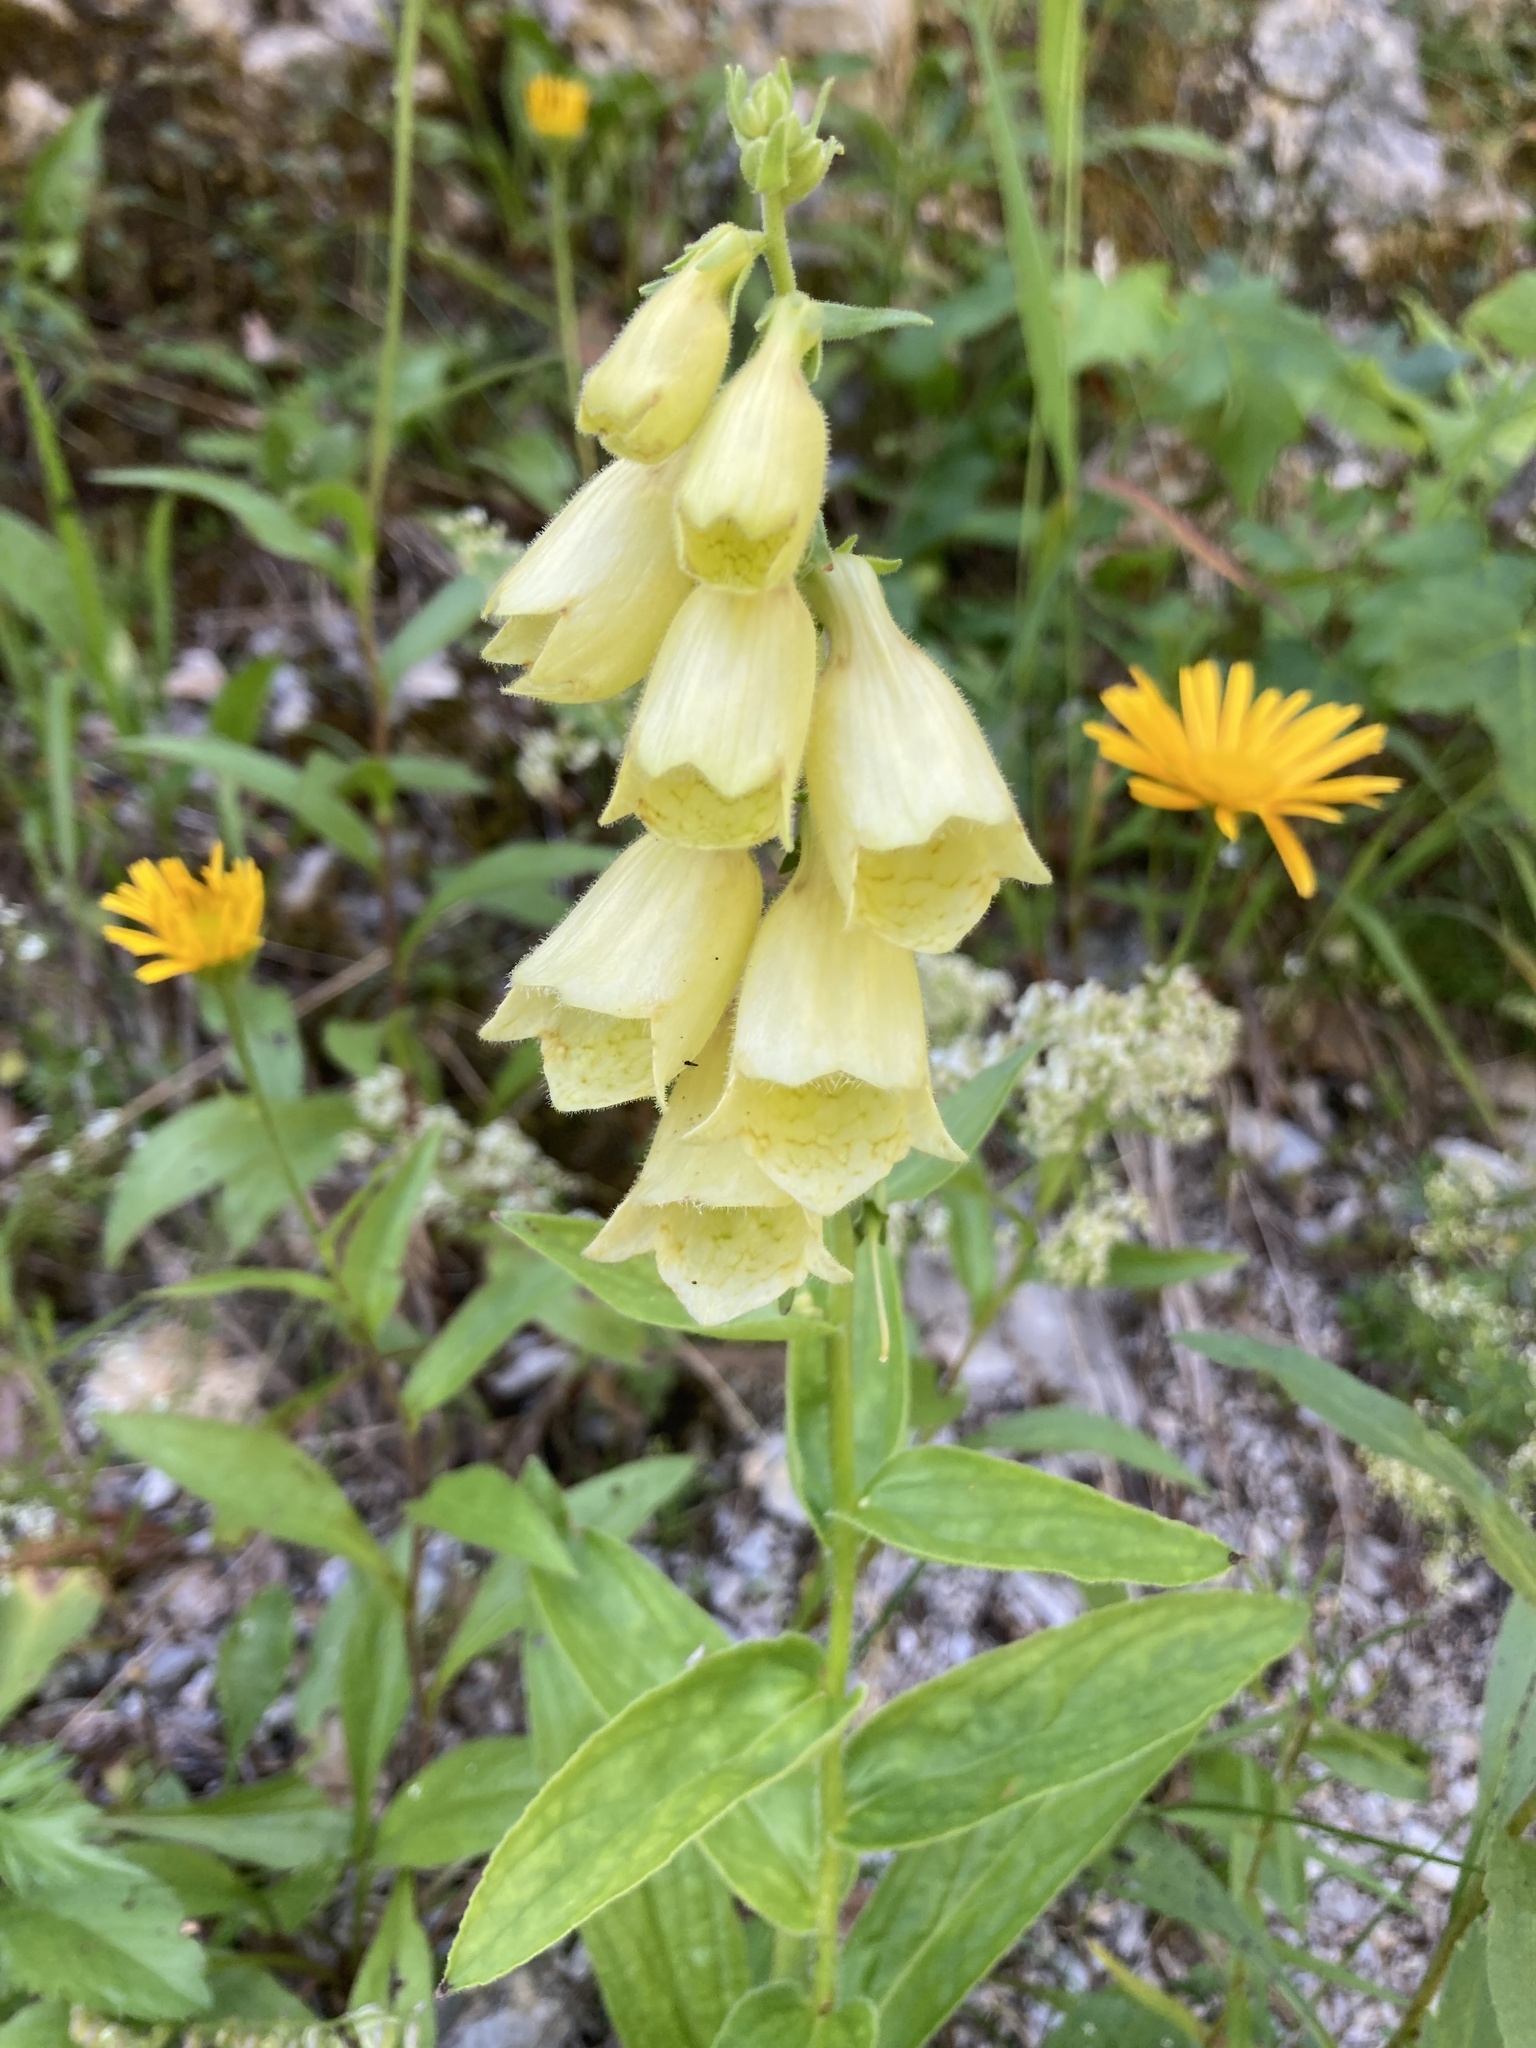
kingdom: Plantae
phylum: Tracheophyta
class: Magnoliopsida
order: Lamiales
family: Plantaginaceae
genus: Digitalis
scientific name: Digitalis grandiflora
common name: Yellow foxglove
